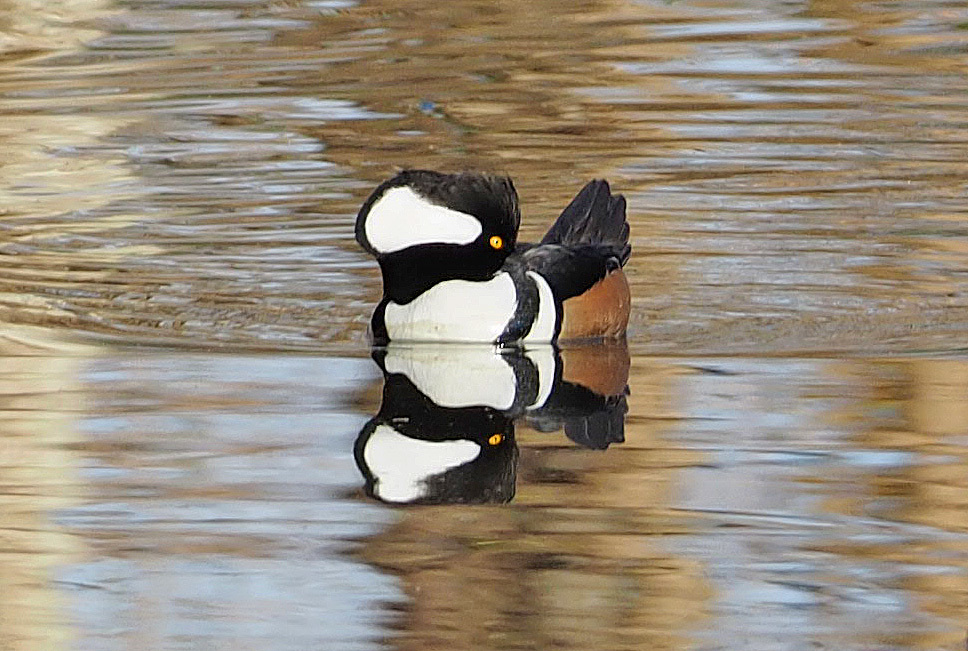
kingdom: Animalia
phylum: Chordata
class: Aves
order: Anseriformes
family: Anatidae
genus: Lophodytes
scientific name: Lophodytes cucullatus
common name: Hooded merganser
